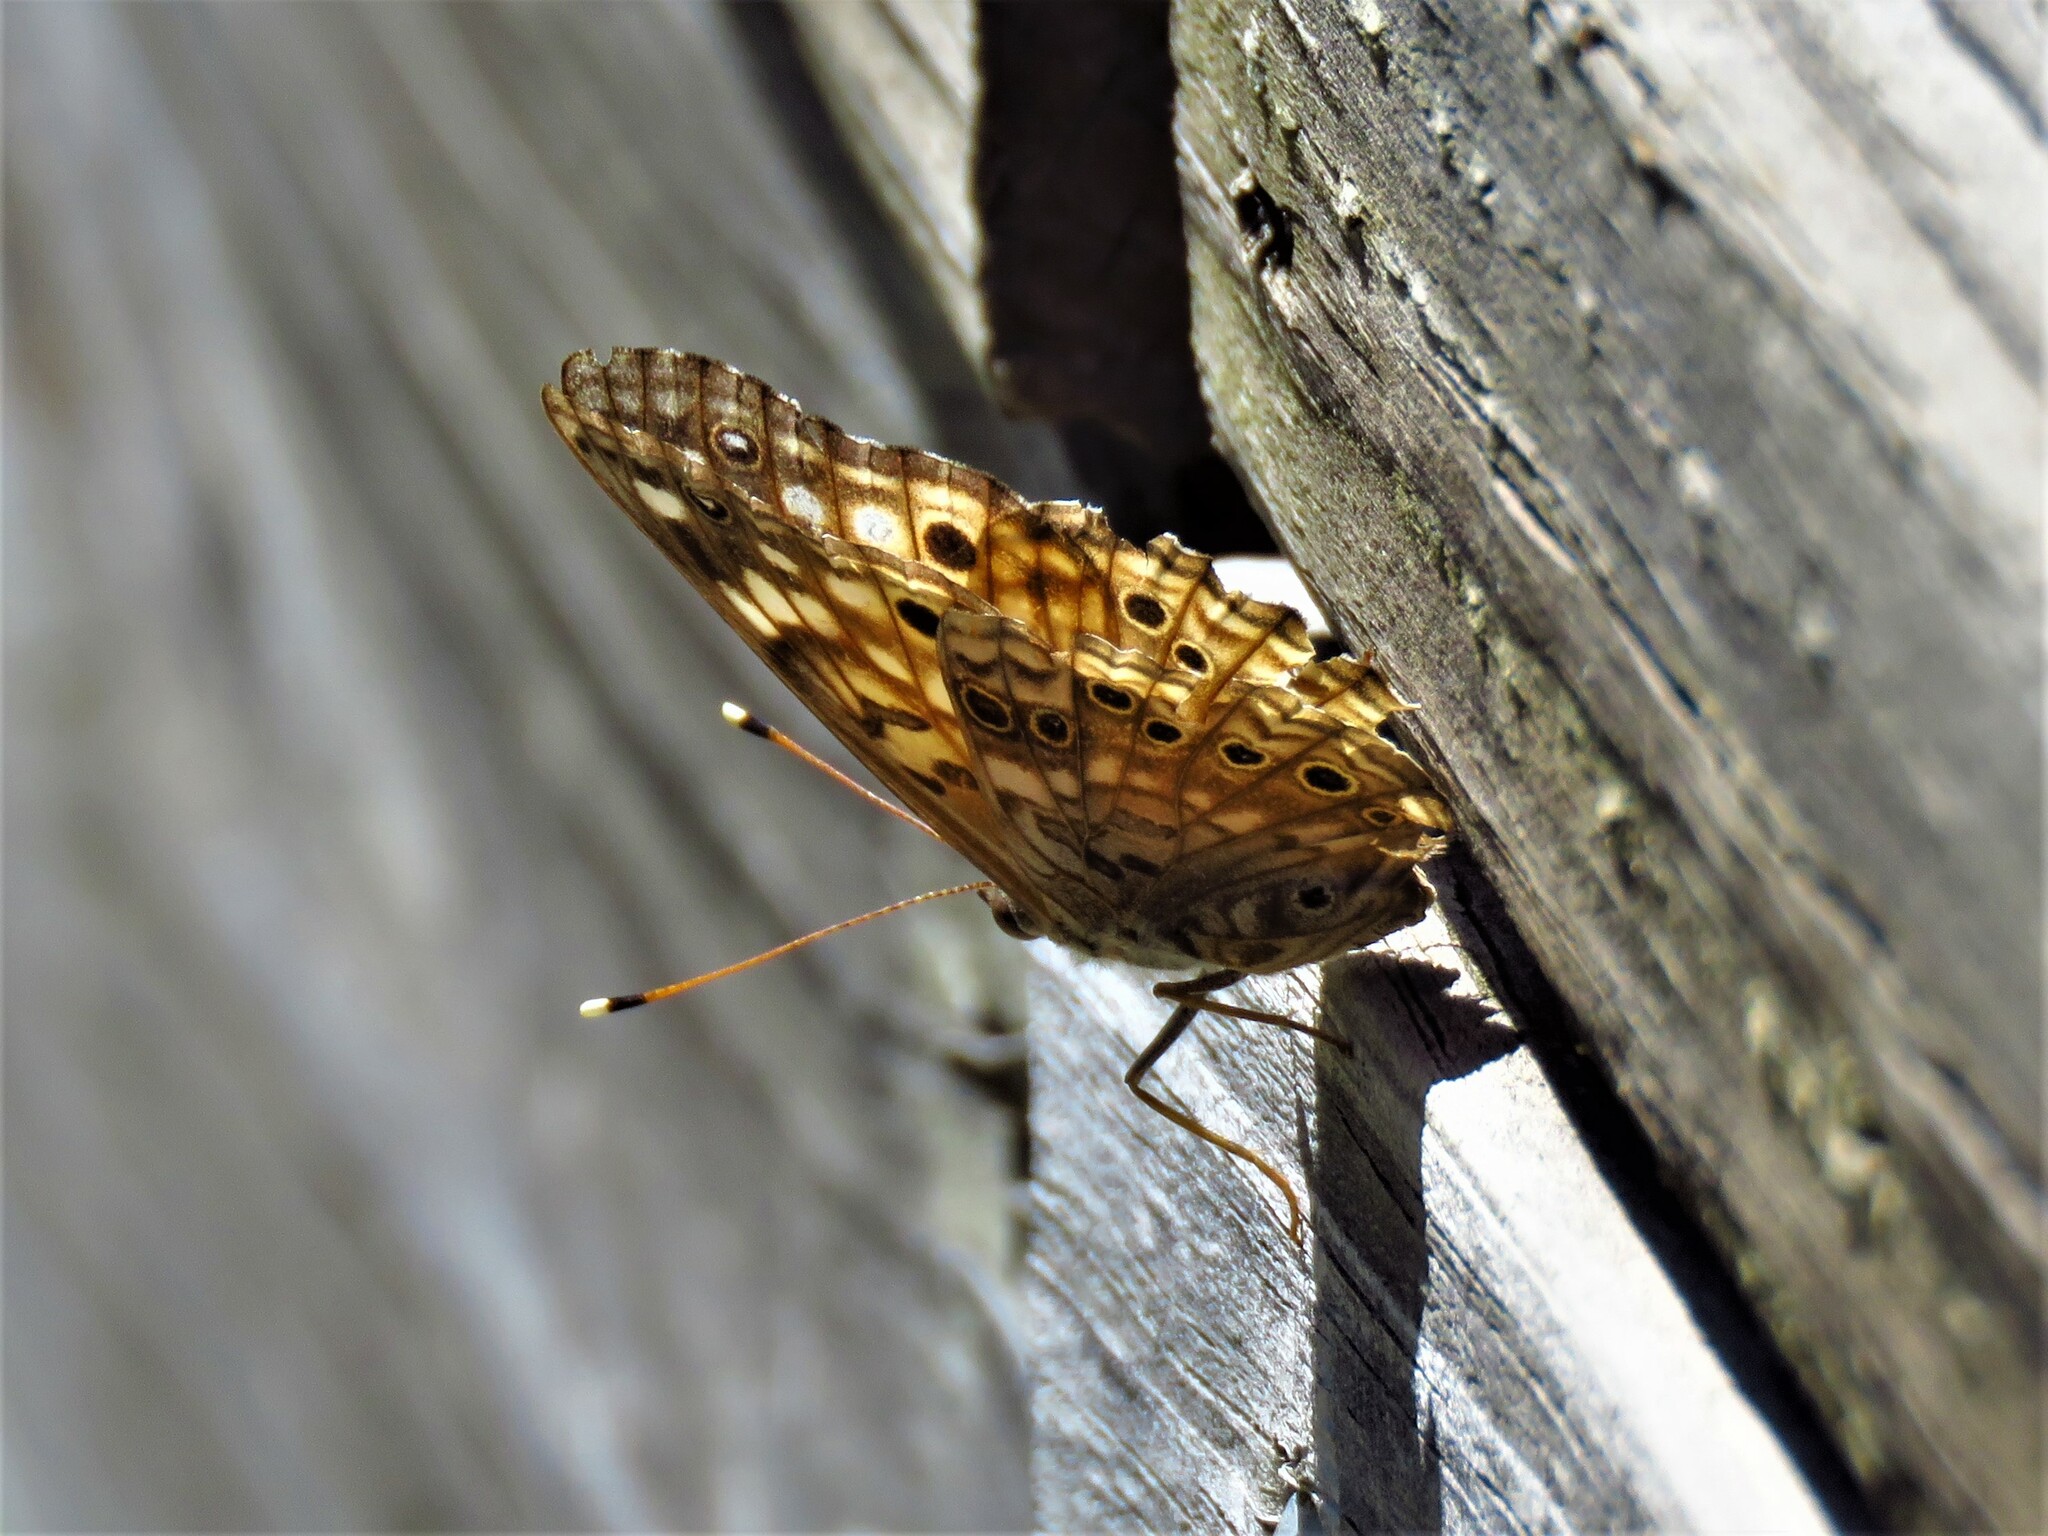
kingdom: Animalia
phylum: Arthropoda
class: Insecta
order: Lepidoptera
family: Nymphalidae
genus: Asterocampa
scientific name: Asterocampa celtis
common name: Hackberry emperor
